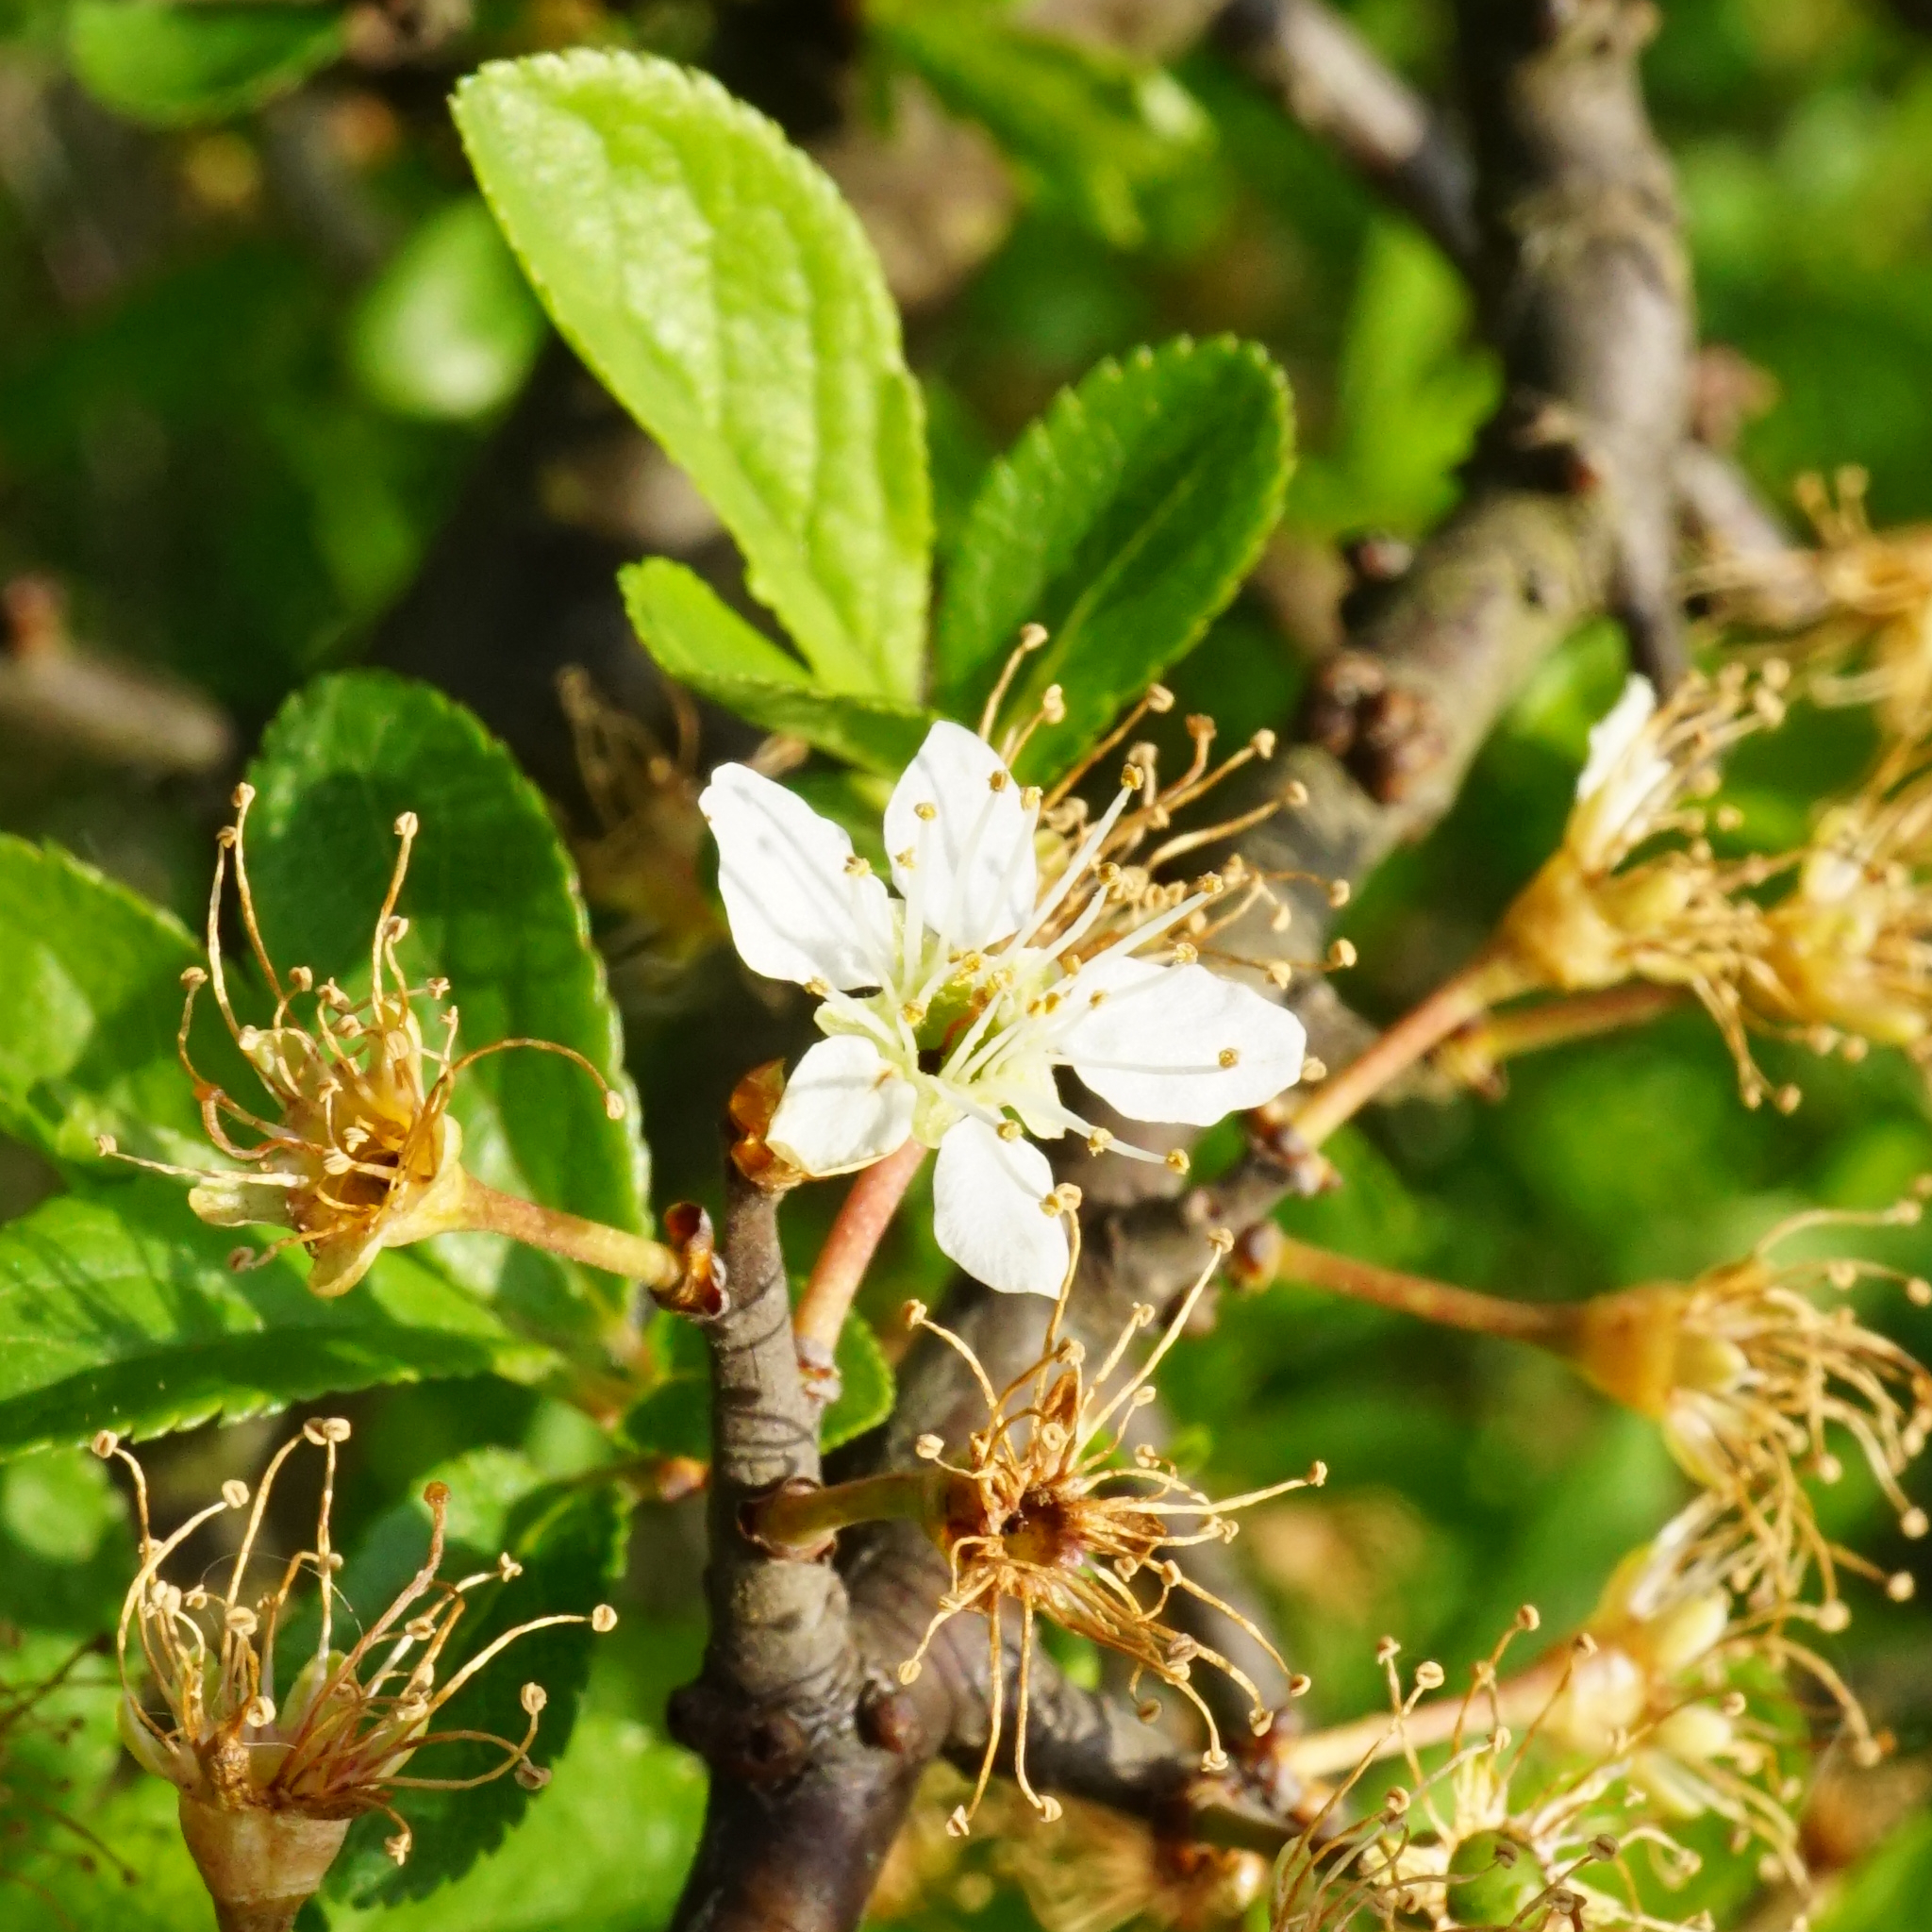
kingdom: Plantae
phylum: Tracheophyta
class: Magnoliopsida
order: Rosales
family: Rosaceae
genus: Prunus
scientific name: Prunus spinosa
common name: Blackthorn
